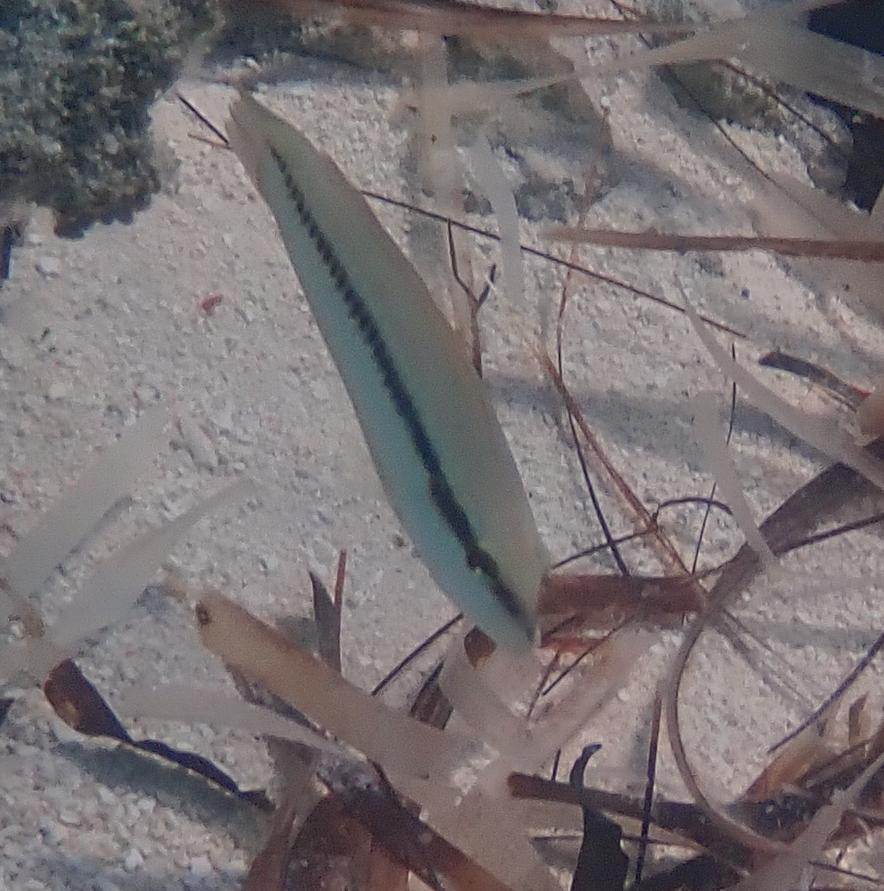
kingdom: Animalia
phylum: Chordata
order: Perciformes
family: Labridae
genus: Halichoeres
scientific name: Halichoeres bivittatus
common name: Slippery dick
